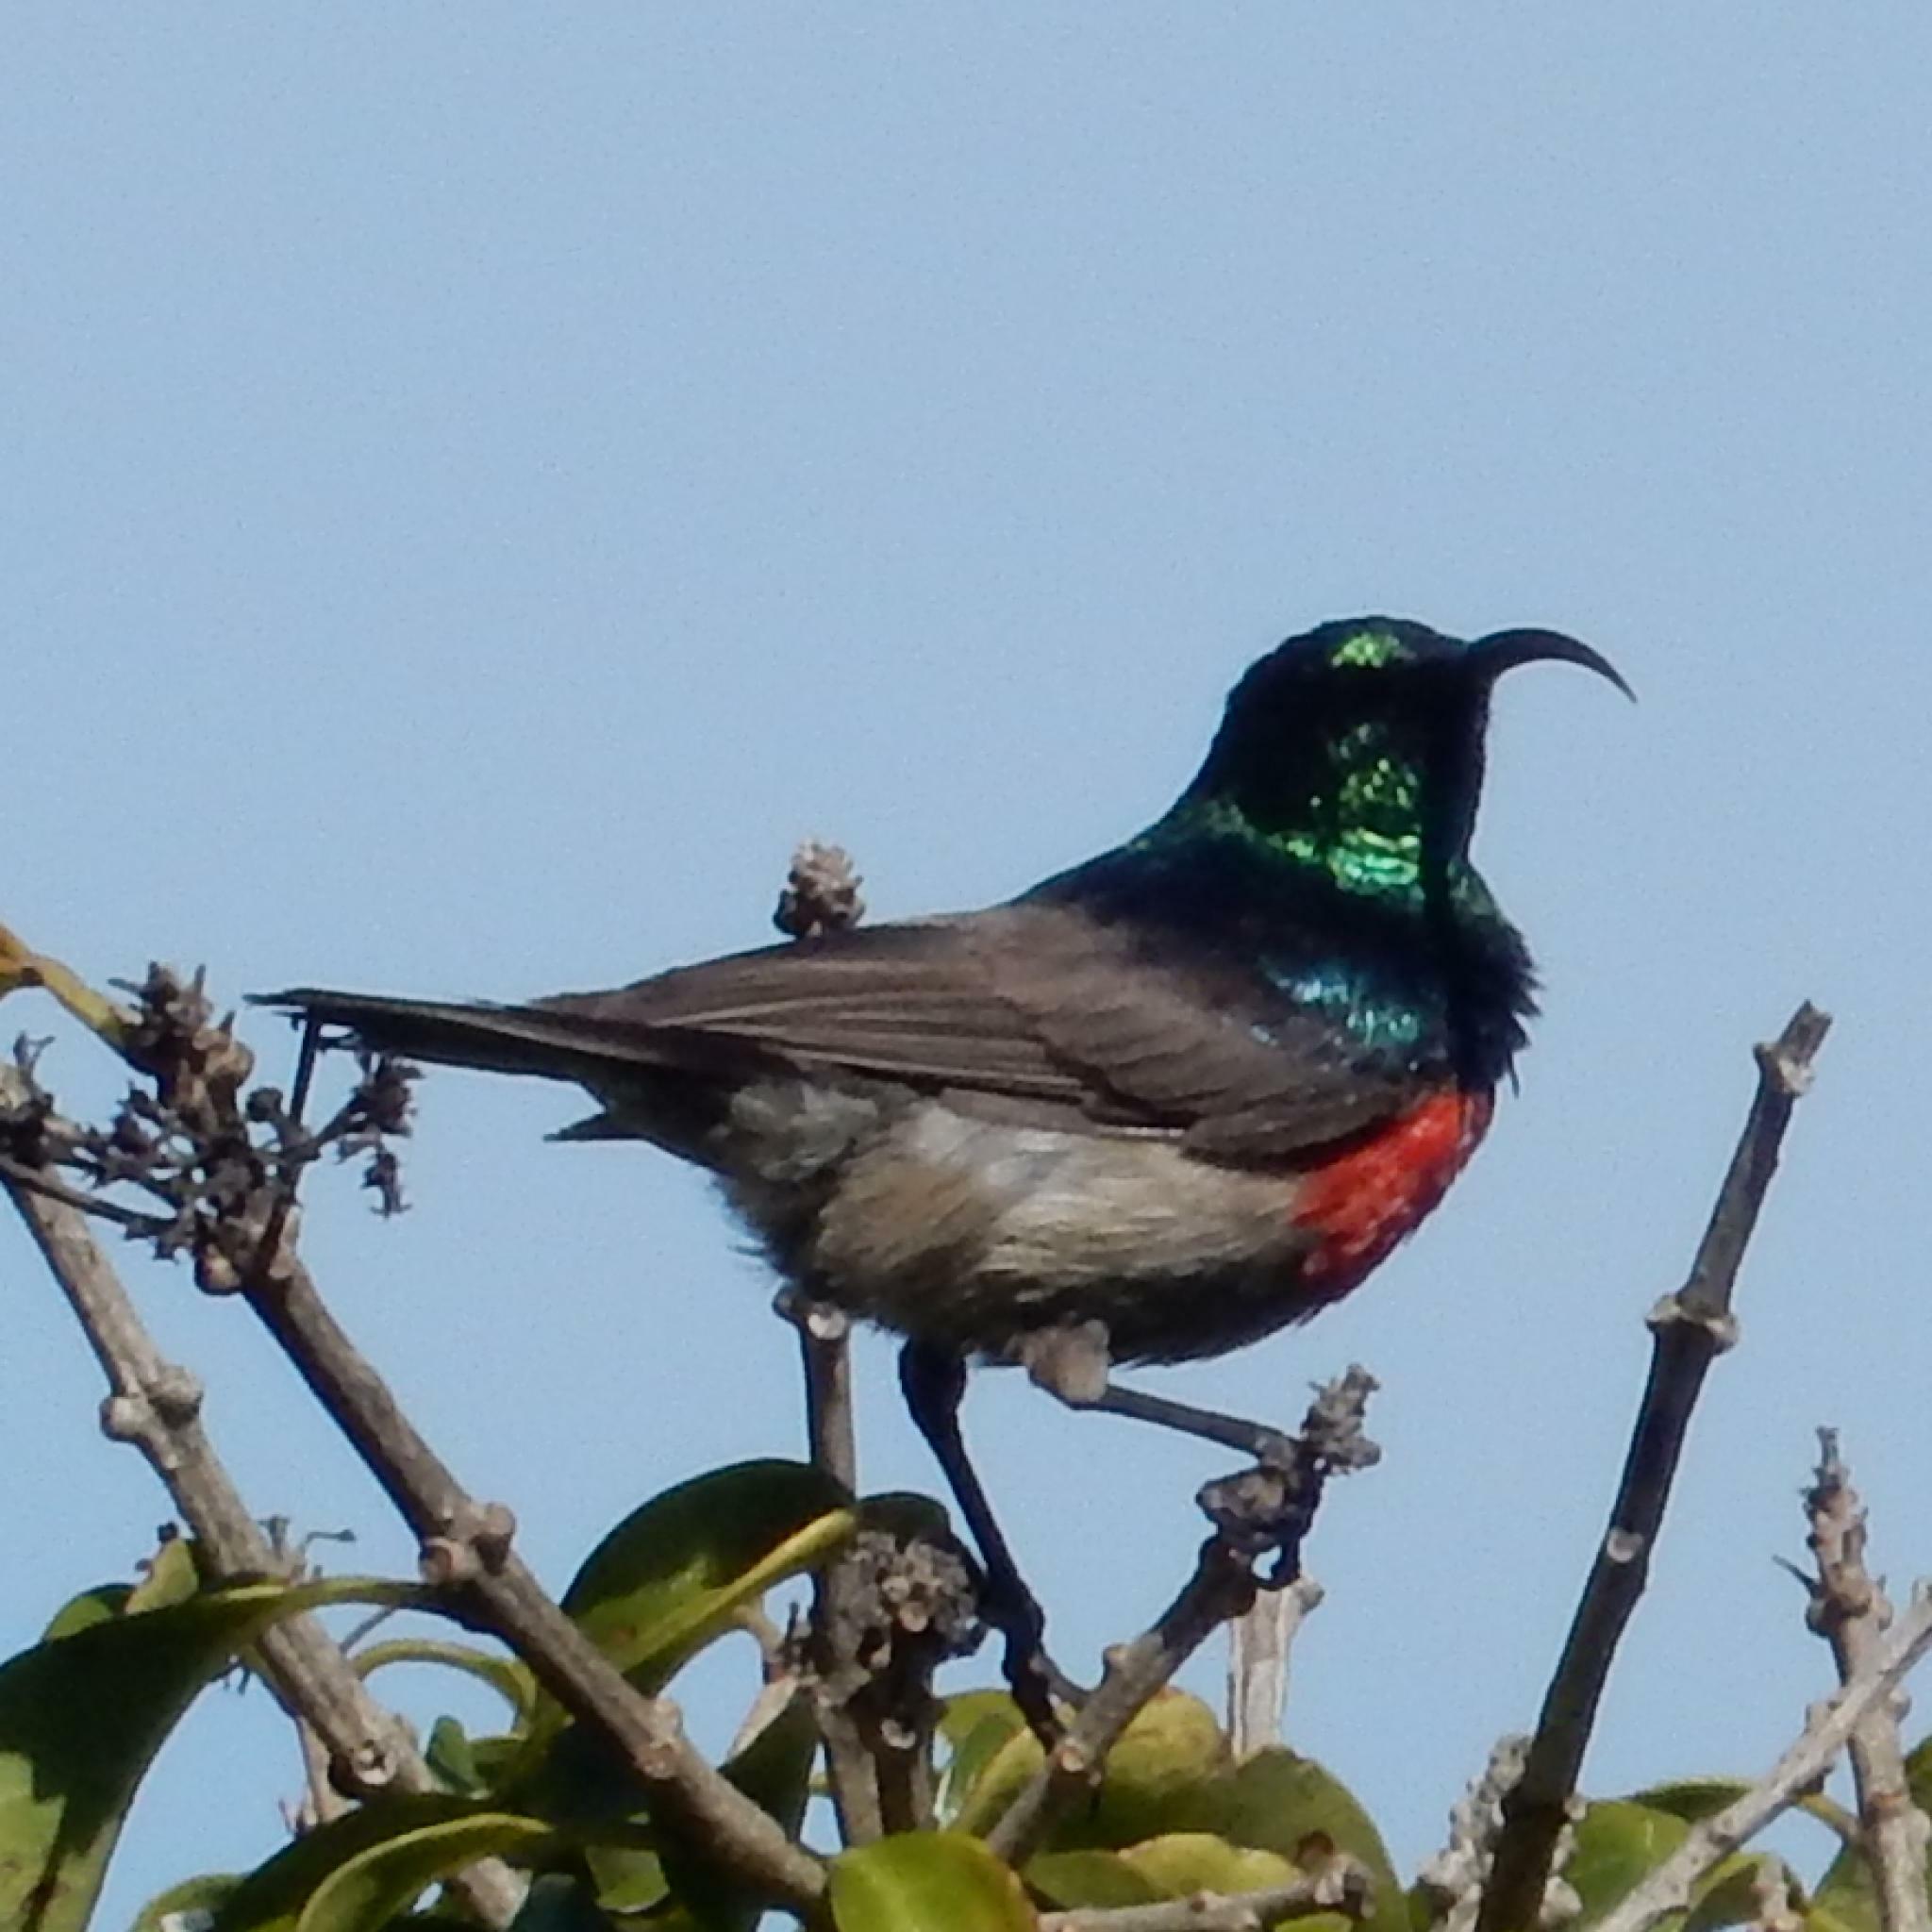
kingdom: Animalia
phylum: Chordata
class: Aves
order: Passeriformes
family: Nectariniidae
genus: Cinnyris
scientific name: Cinnyris afer
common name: Greater double-collared sunbird
